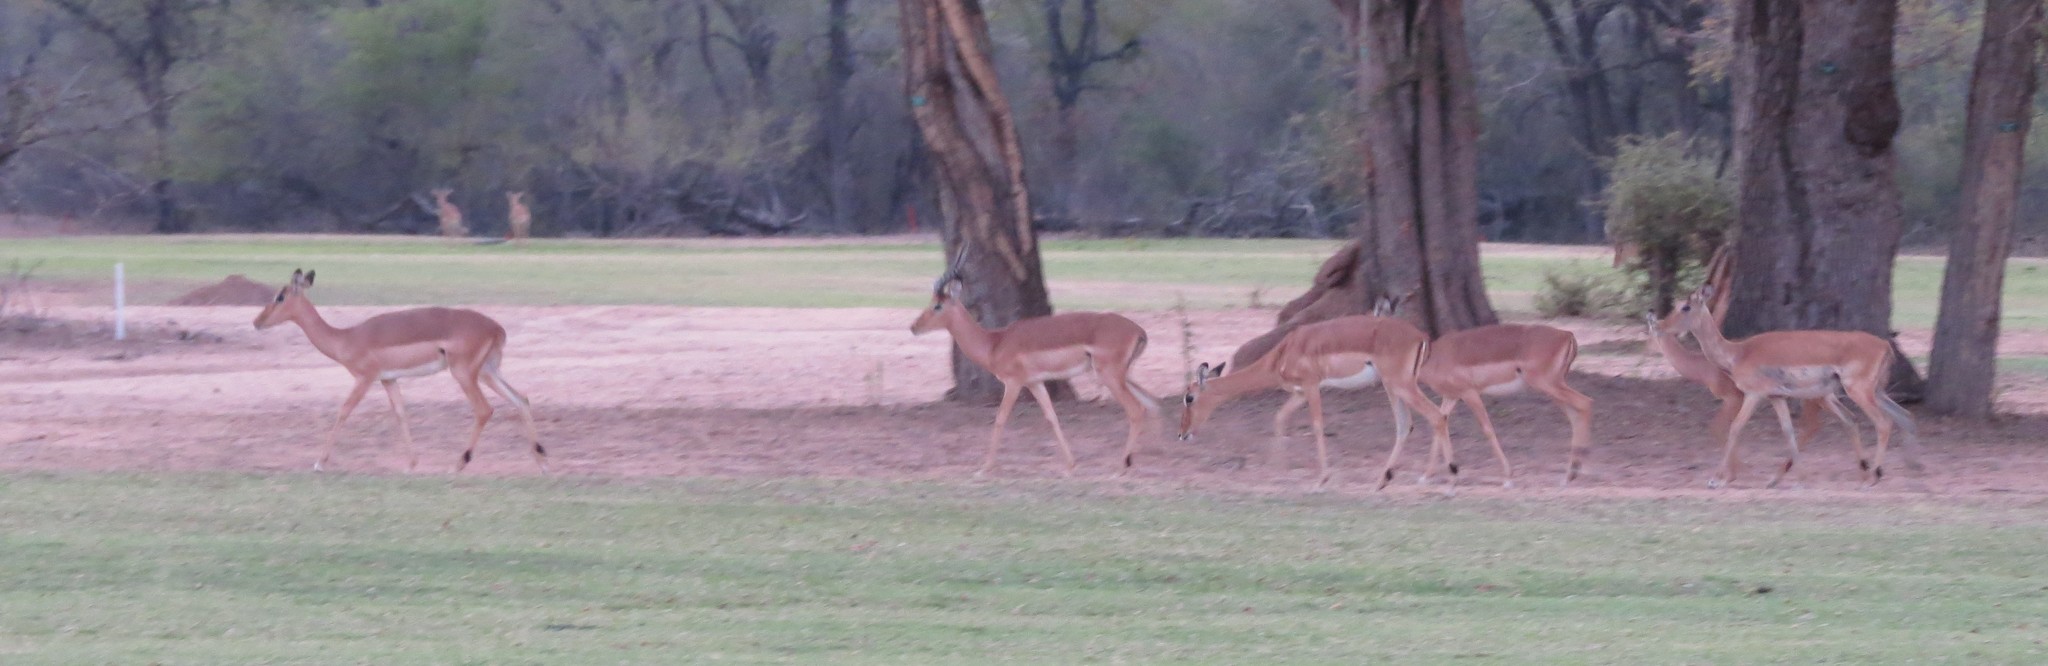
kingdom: Animalia
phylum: Chordata
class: Mammalia
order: Artiodactyla
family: Bovidae
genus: Aepyceros
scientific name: Aepyceros melampus
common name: Impala
